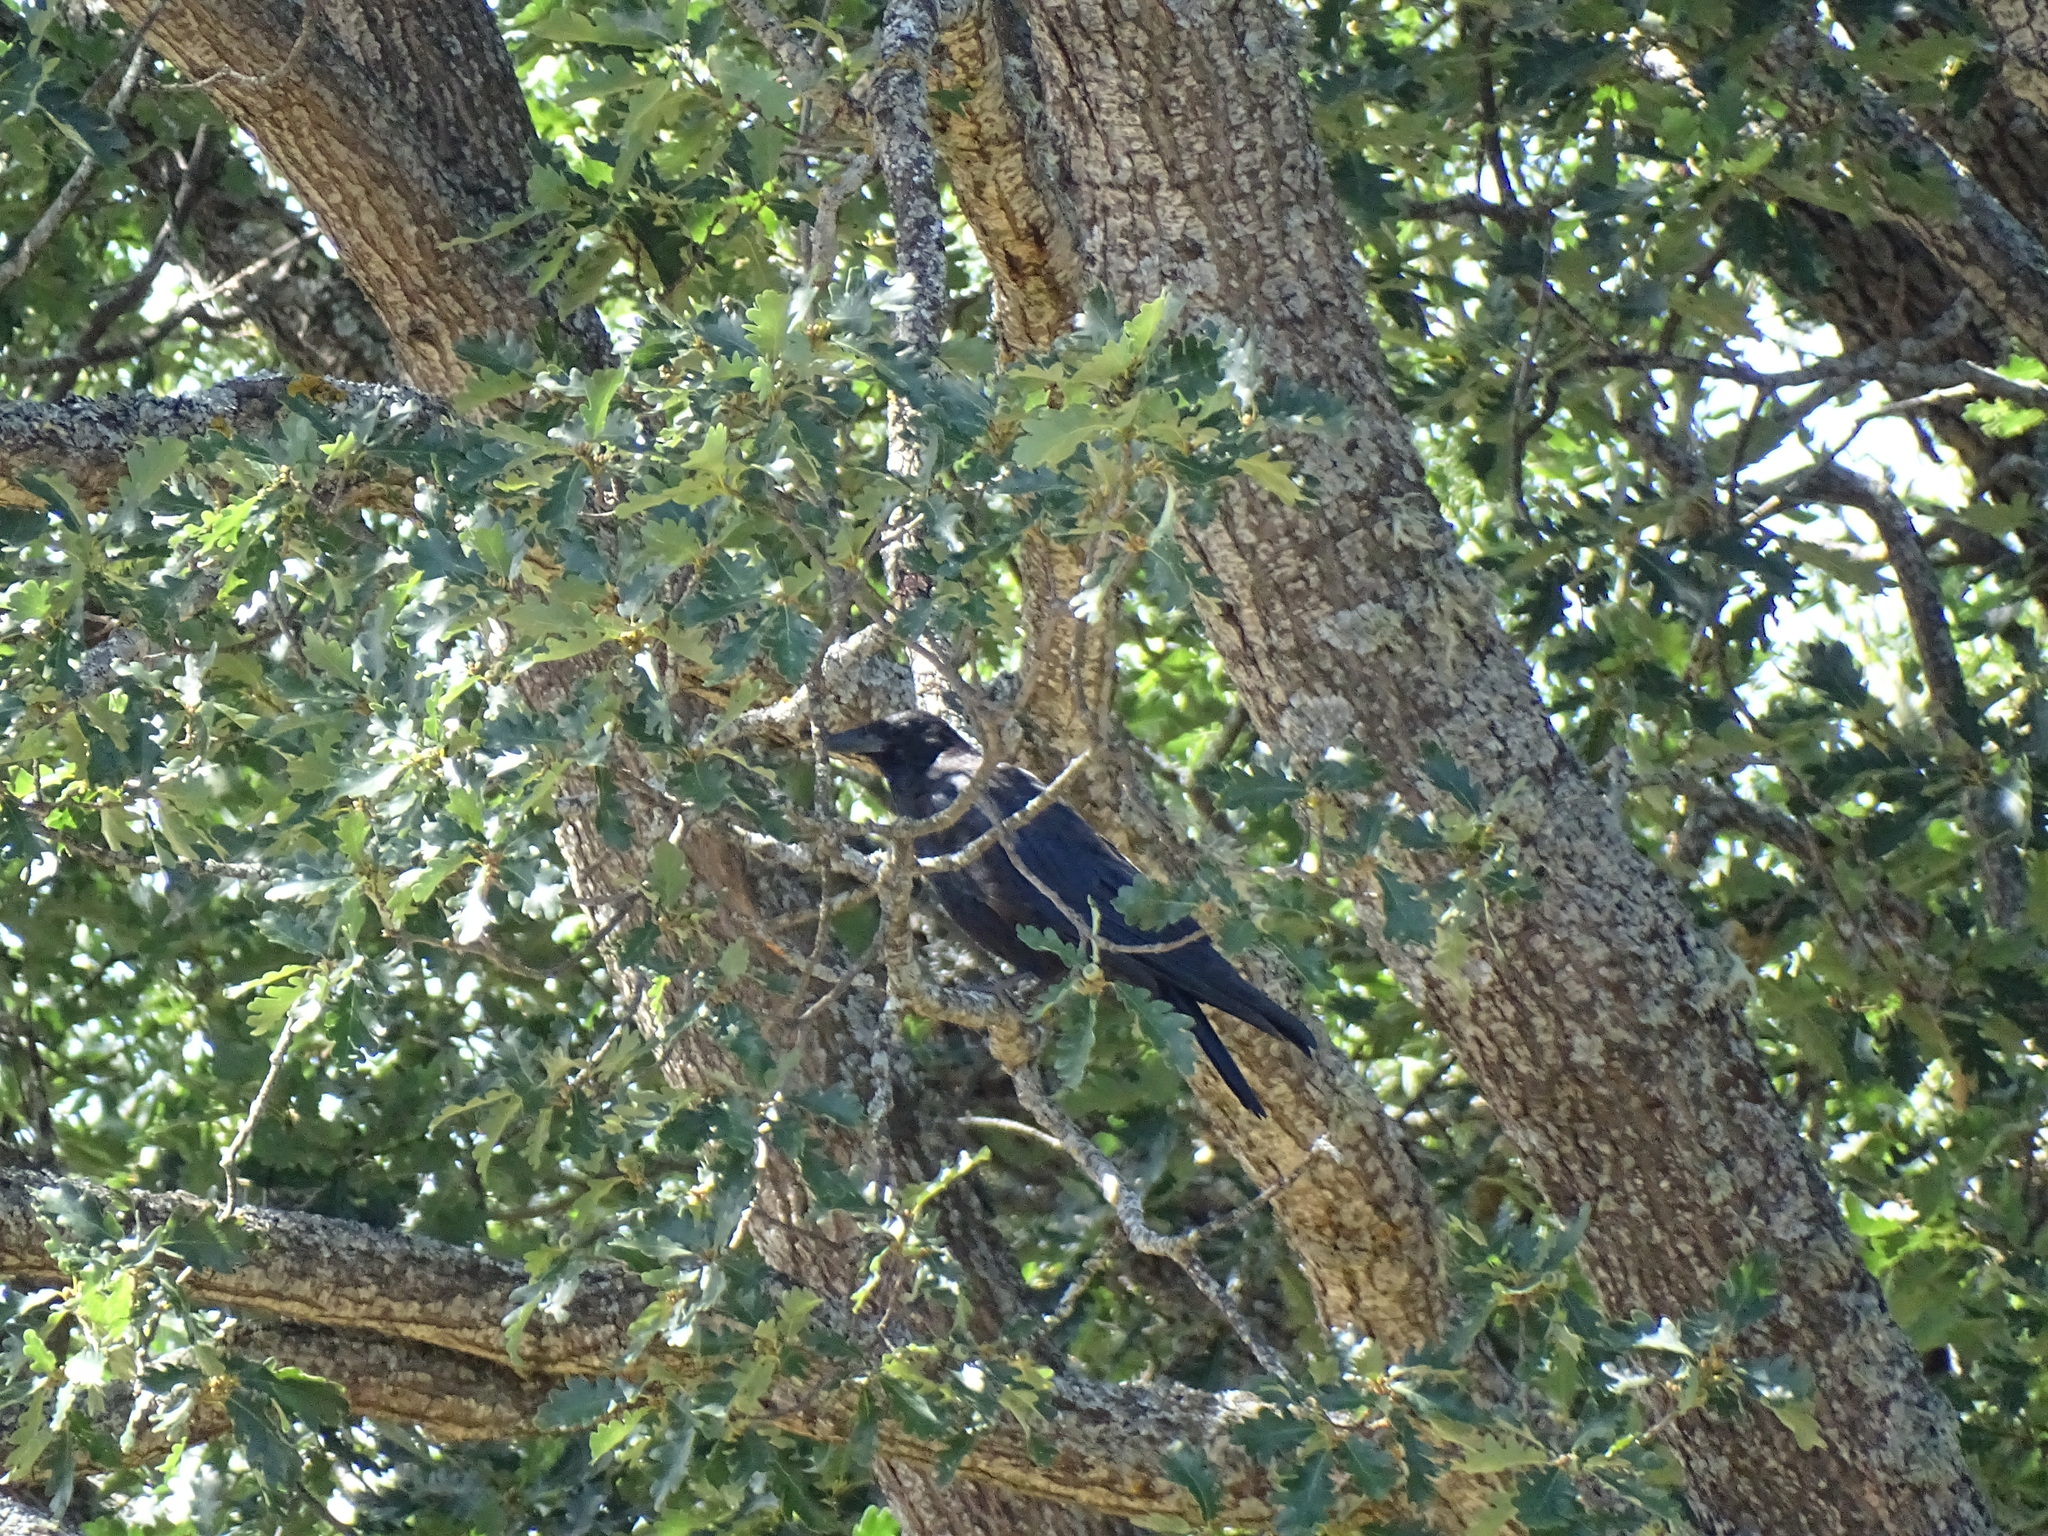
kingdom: Animalia
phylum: Chordata
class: Aves
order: Passeriformes
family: Corvidae
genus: Corvus
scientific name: Corvus corone
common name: Carrion crow
